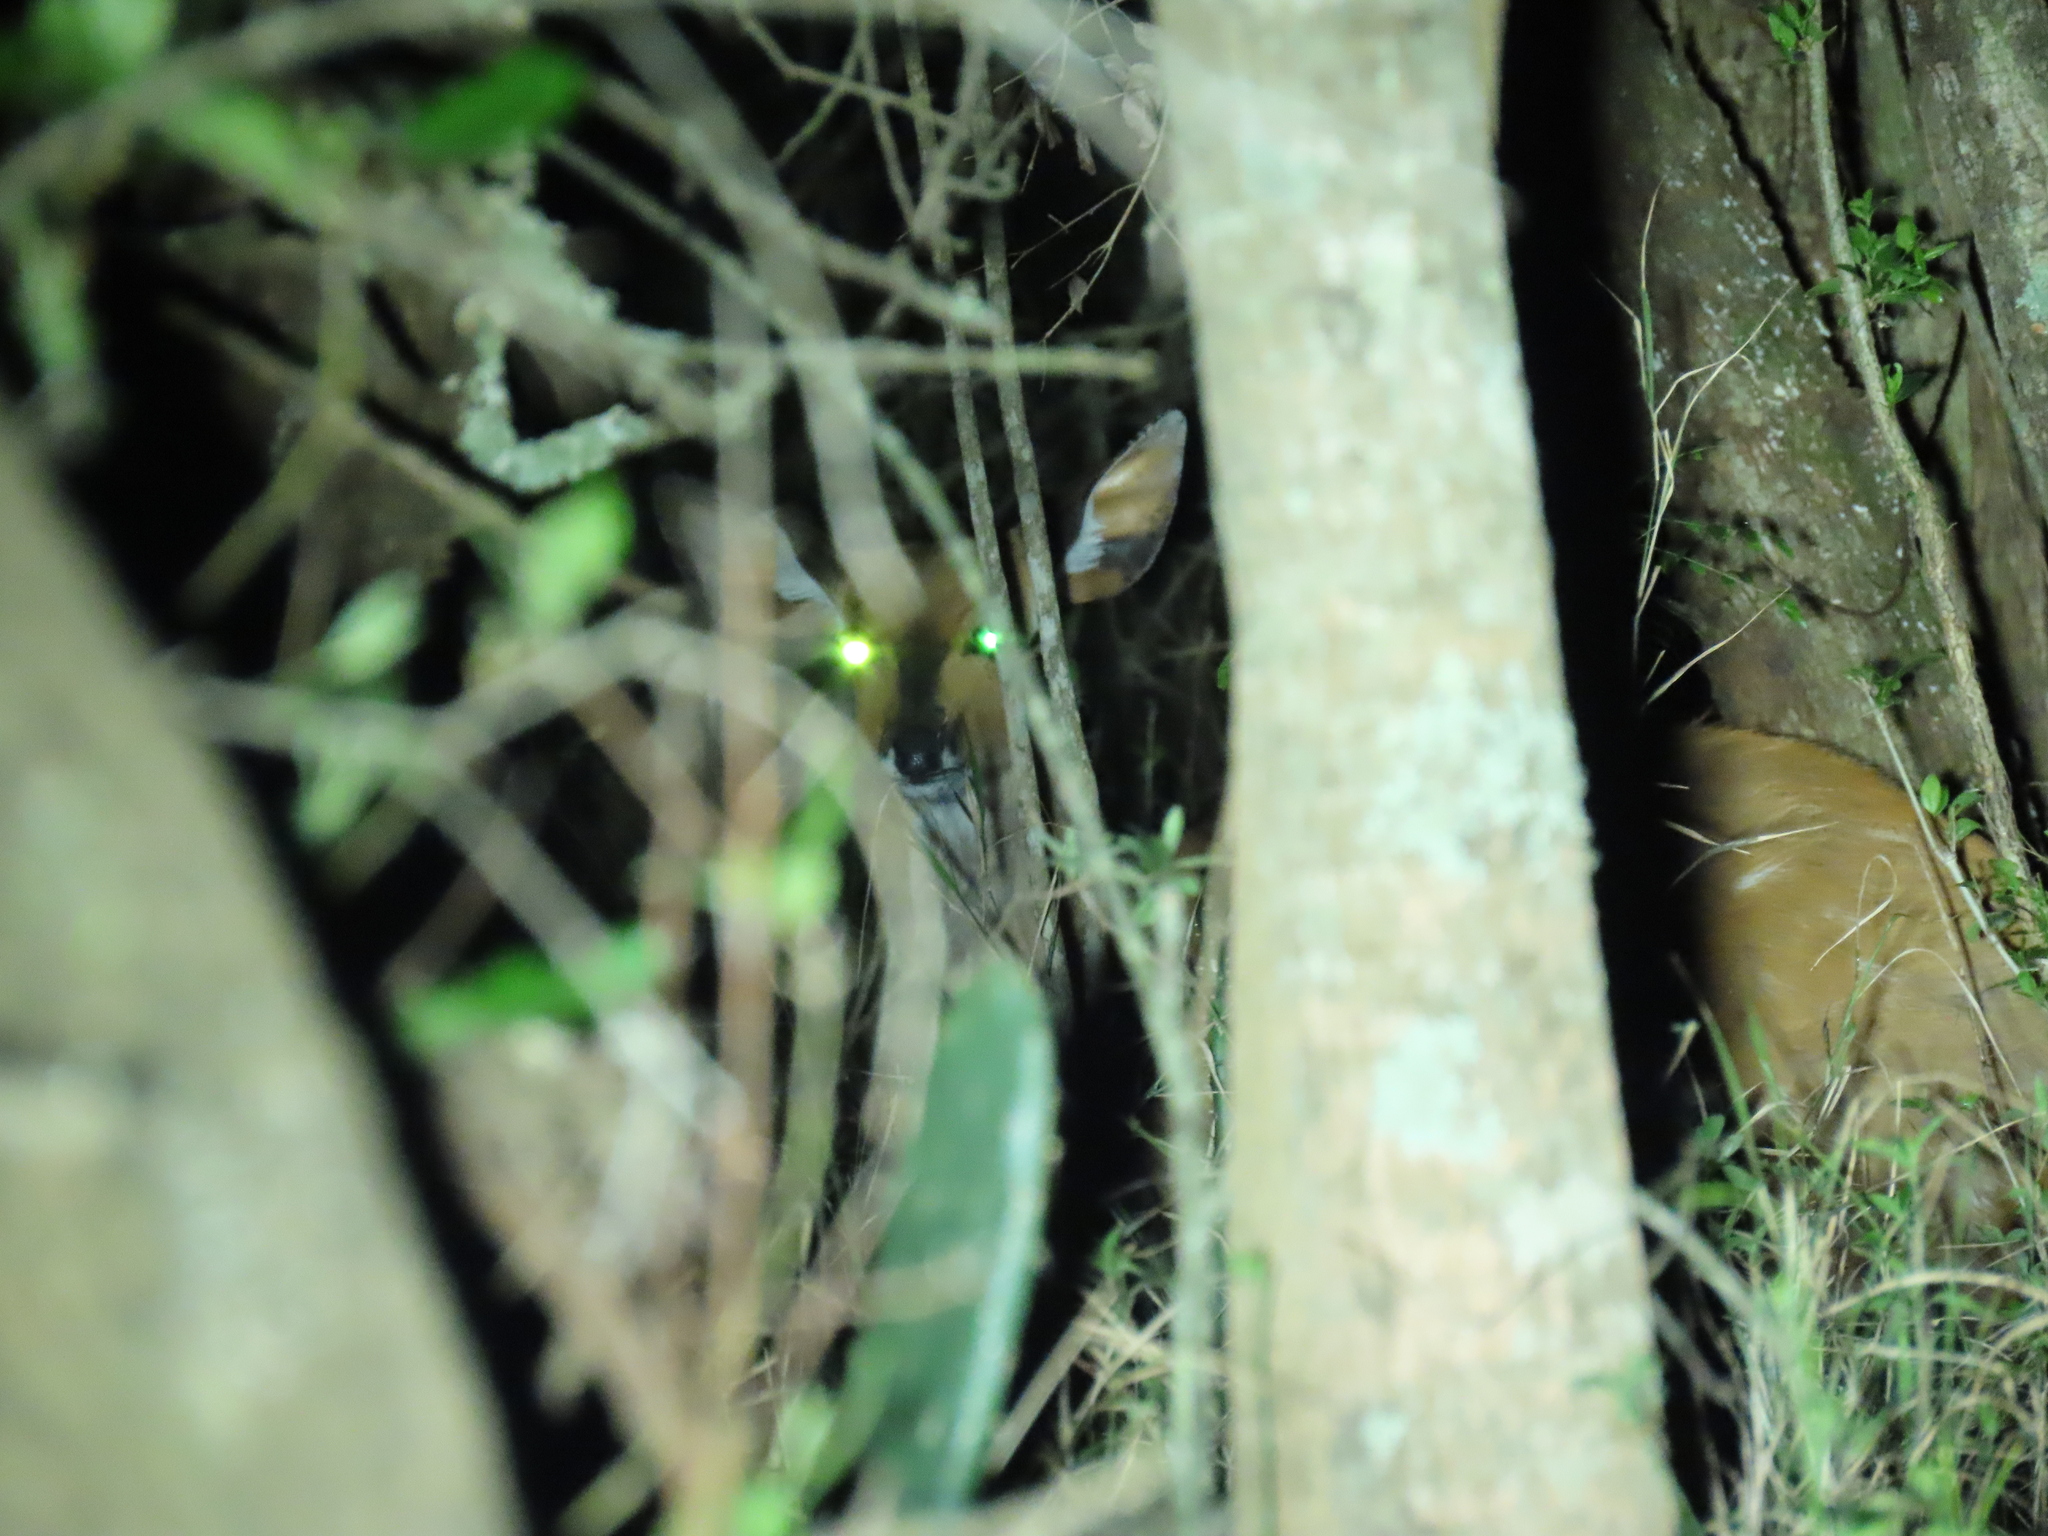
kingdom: Animalia
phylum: Chordata
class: Mammalia
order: Artiodactyla
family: Bovidae
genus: Tragelaphus
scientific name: Tragelaphus scriptus
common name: Bushbuck
